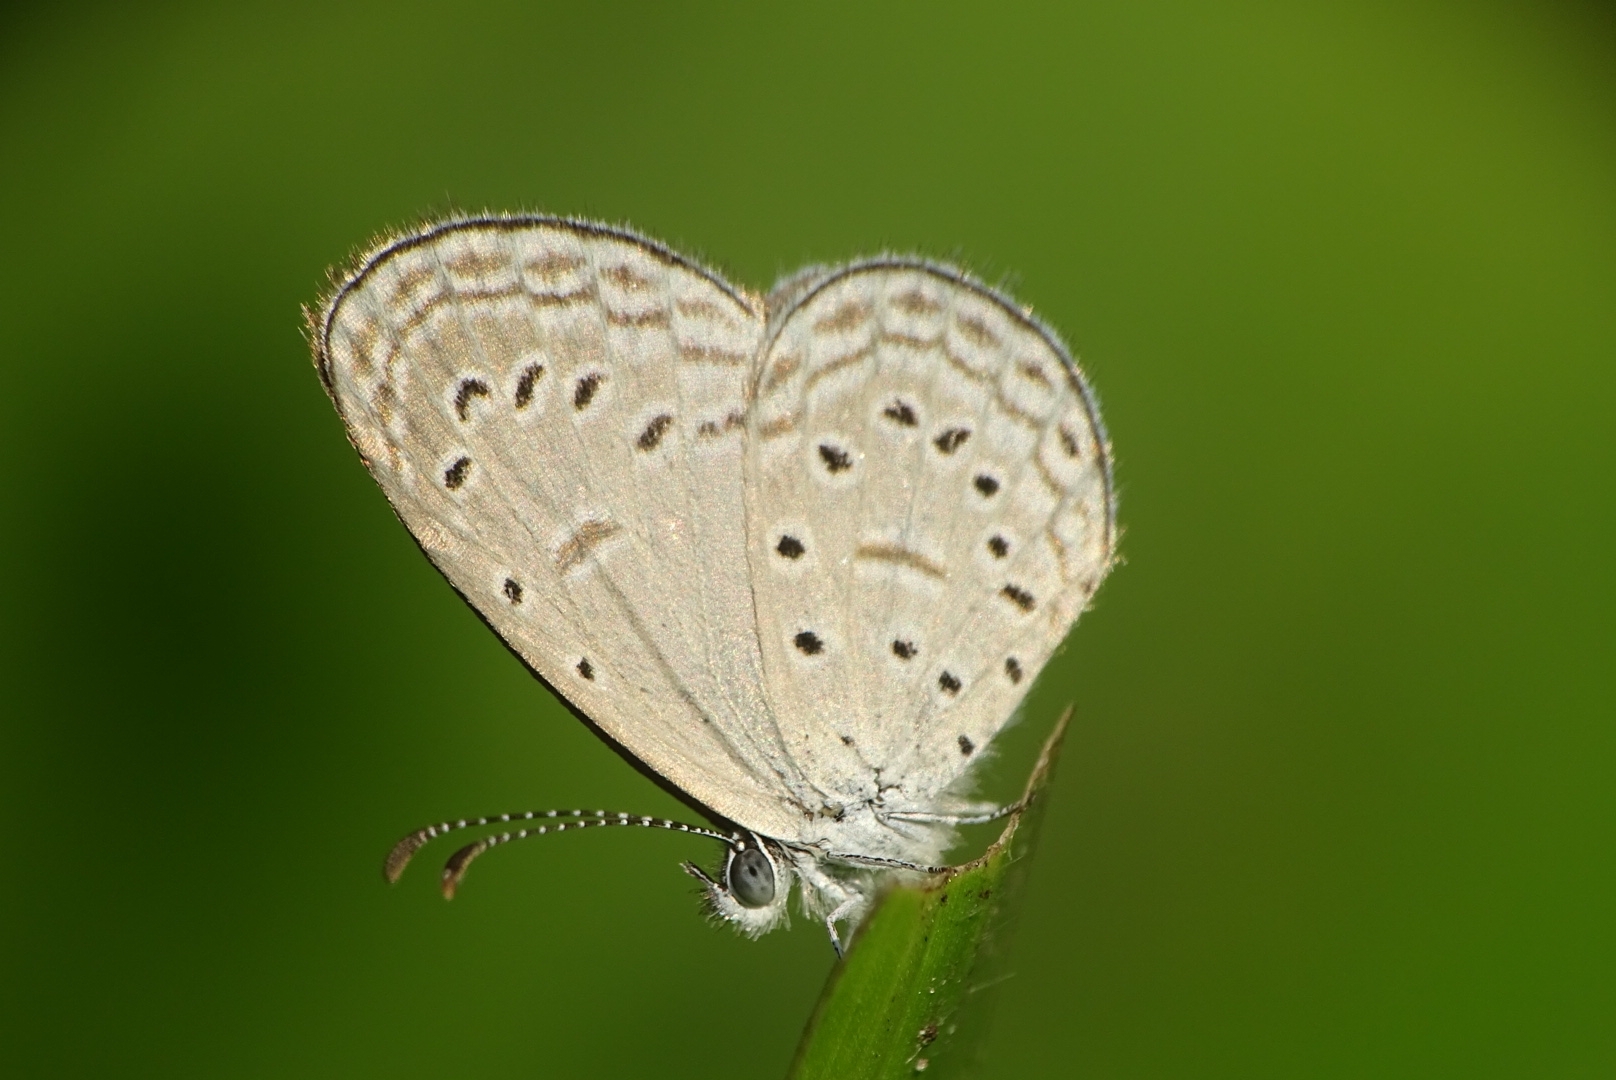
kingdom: Animalia
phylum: Arthropoda
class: Insecta
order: Lepidoptera
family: Lycaenidae
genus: Zizula
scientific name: Zizula hylax
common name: Gaika blue
